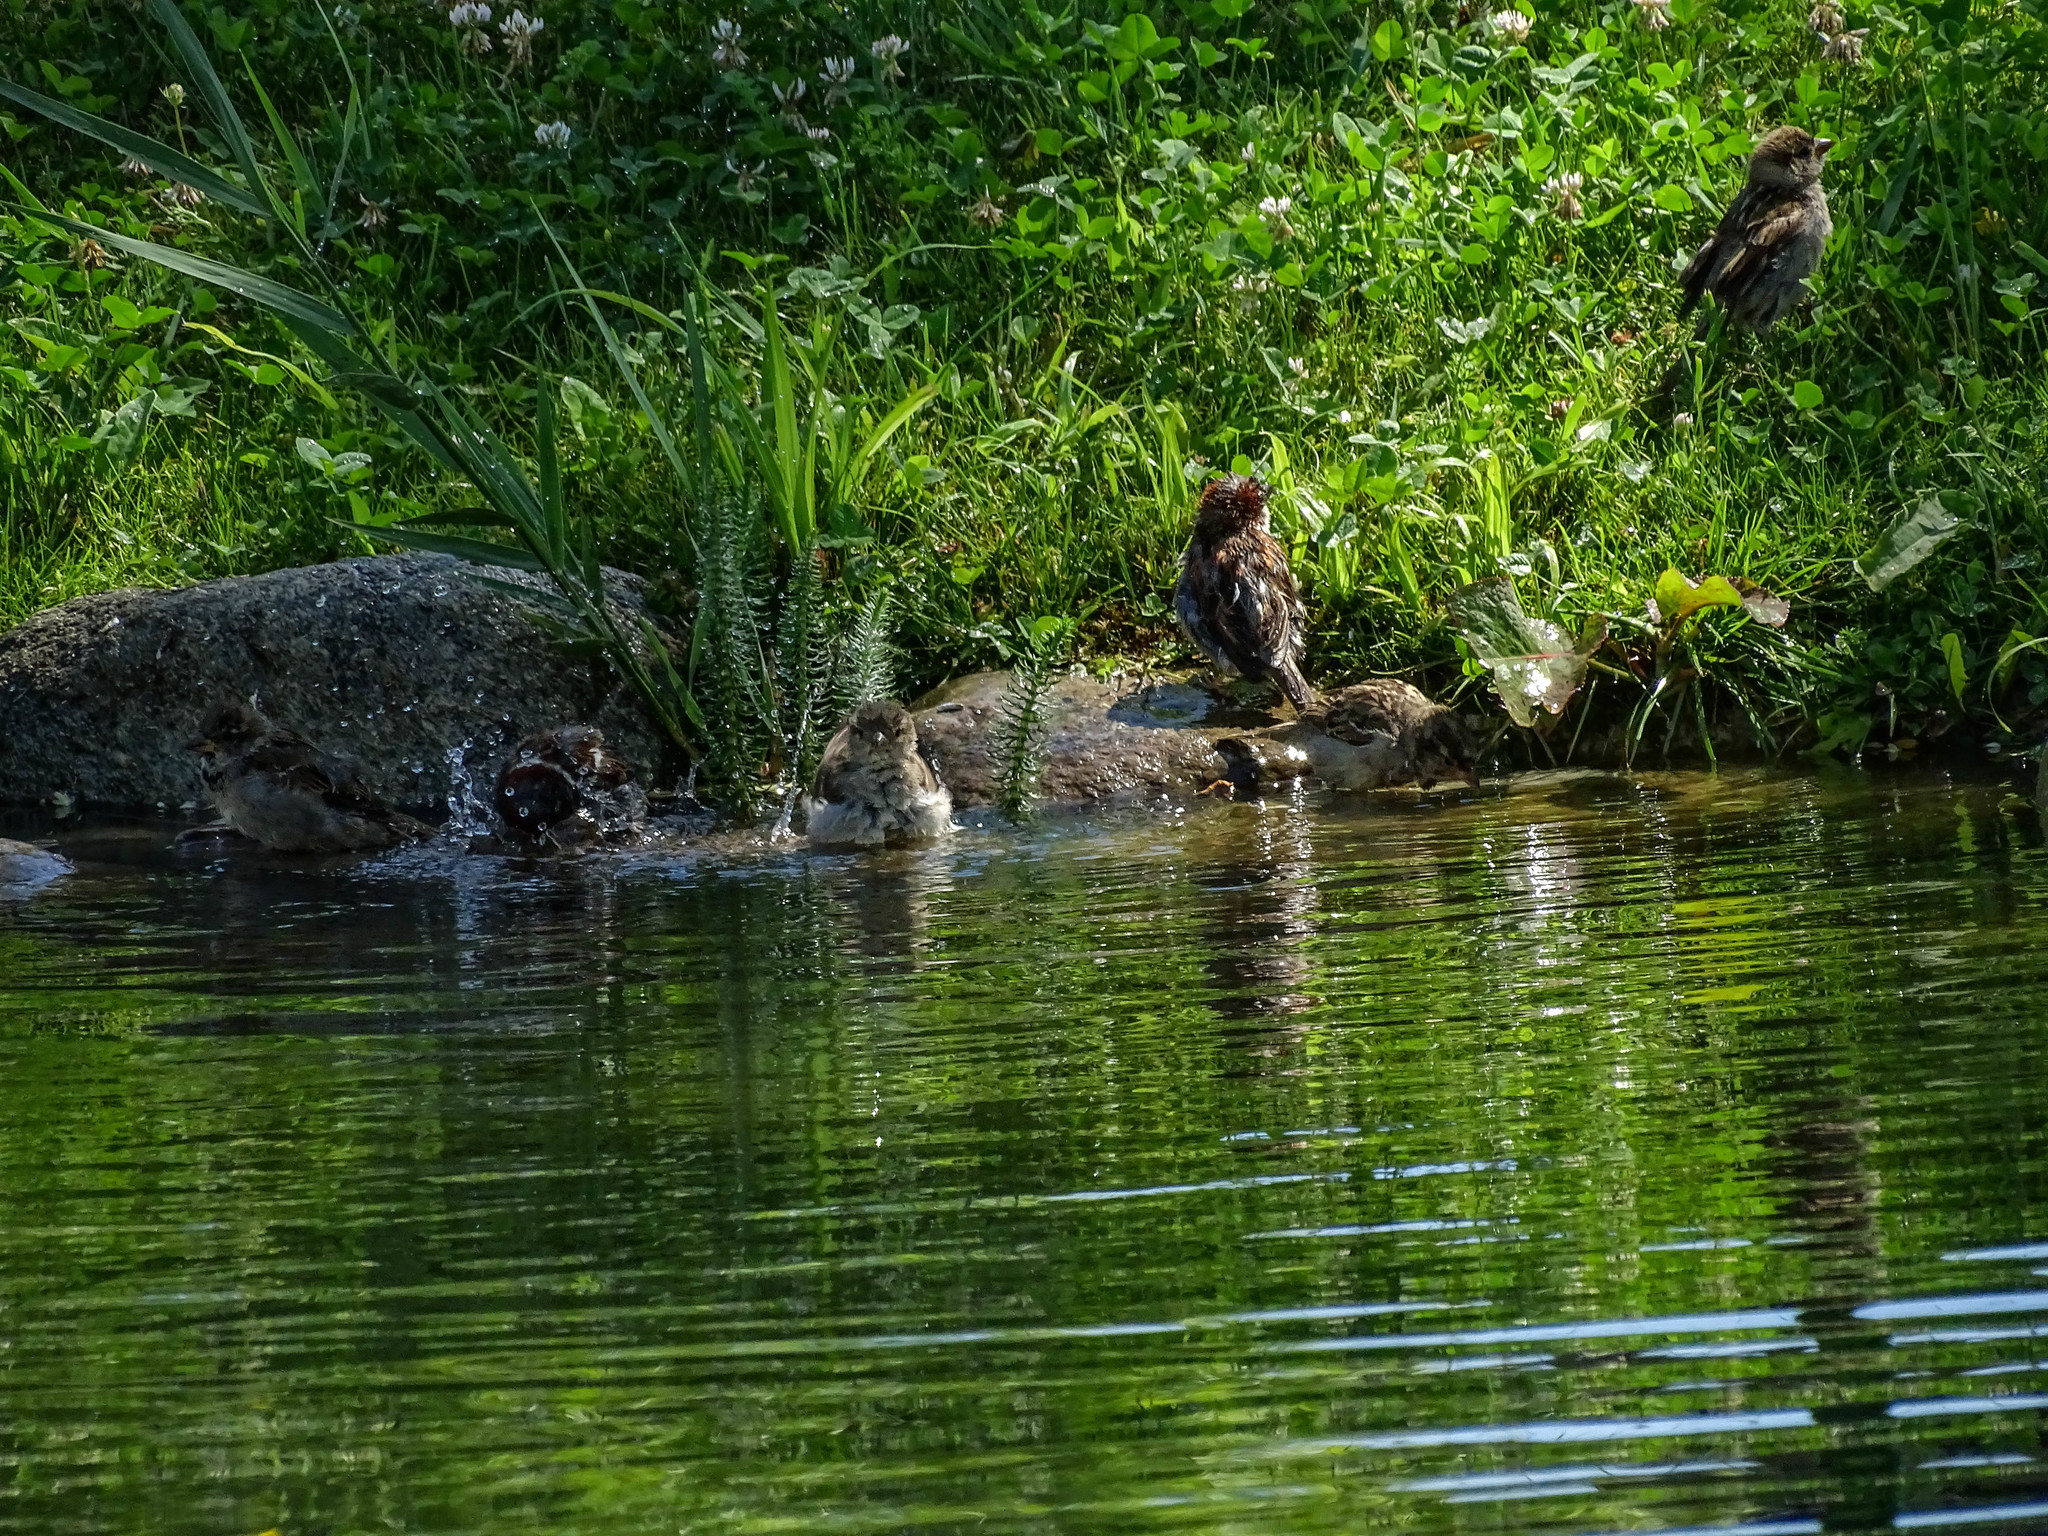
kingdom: Animalia
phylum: Chordata
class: Aves
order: Passeriformes
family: Passeridae
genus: Passer
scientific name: Passer domesticus
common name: House sparrow
